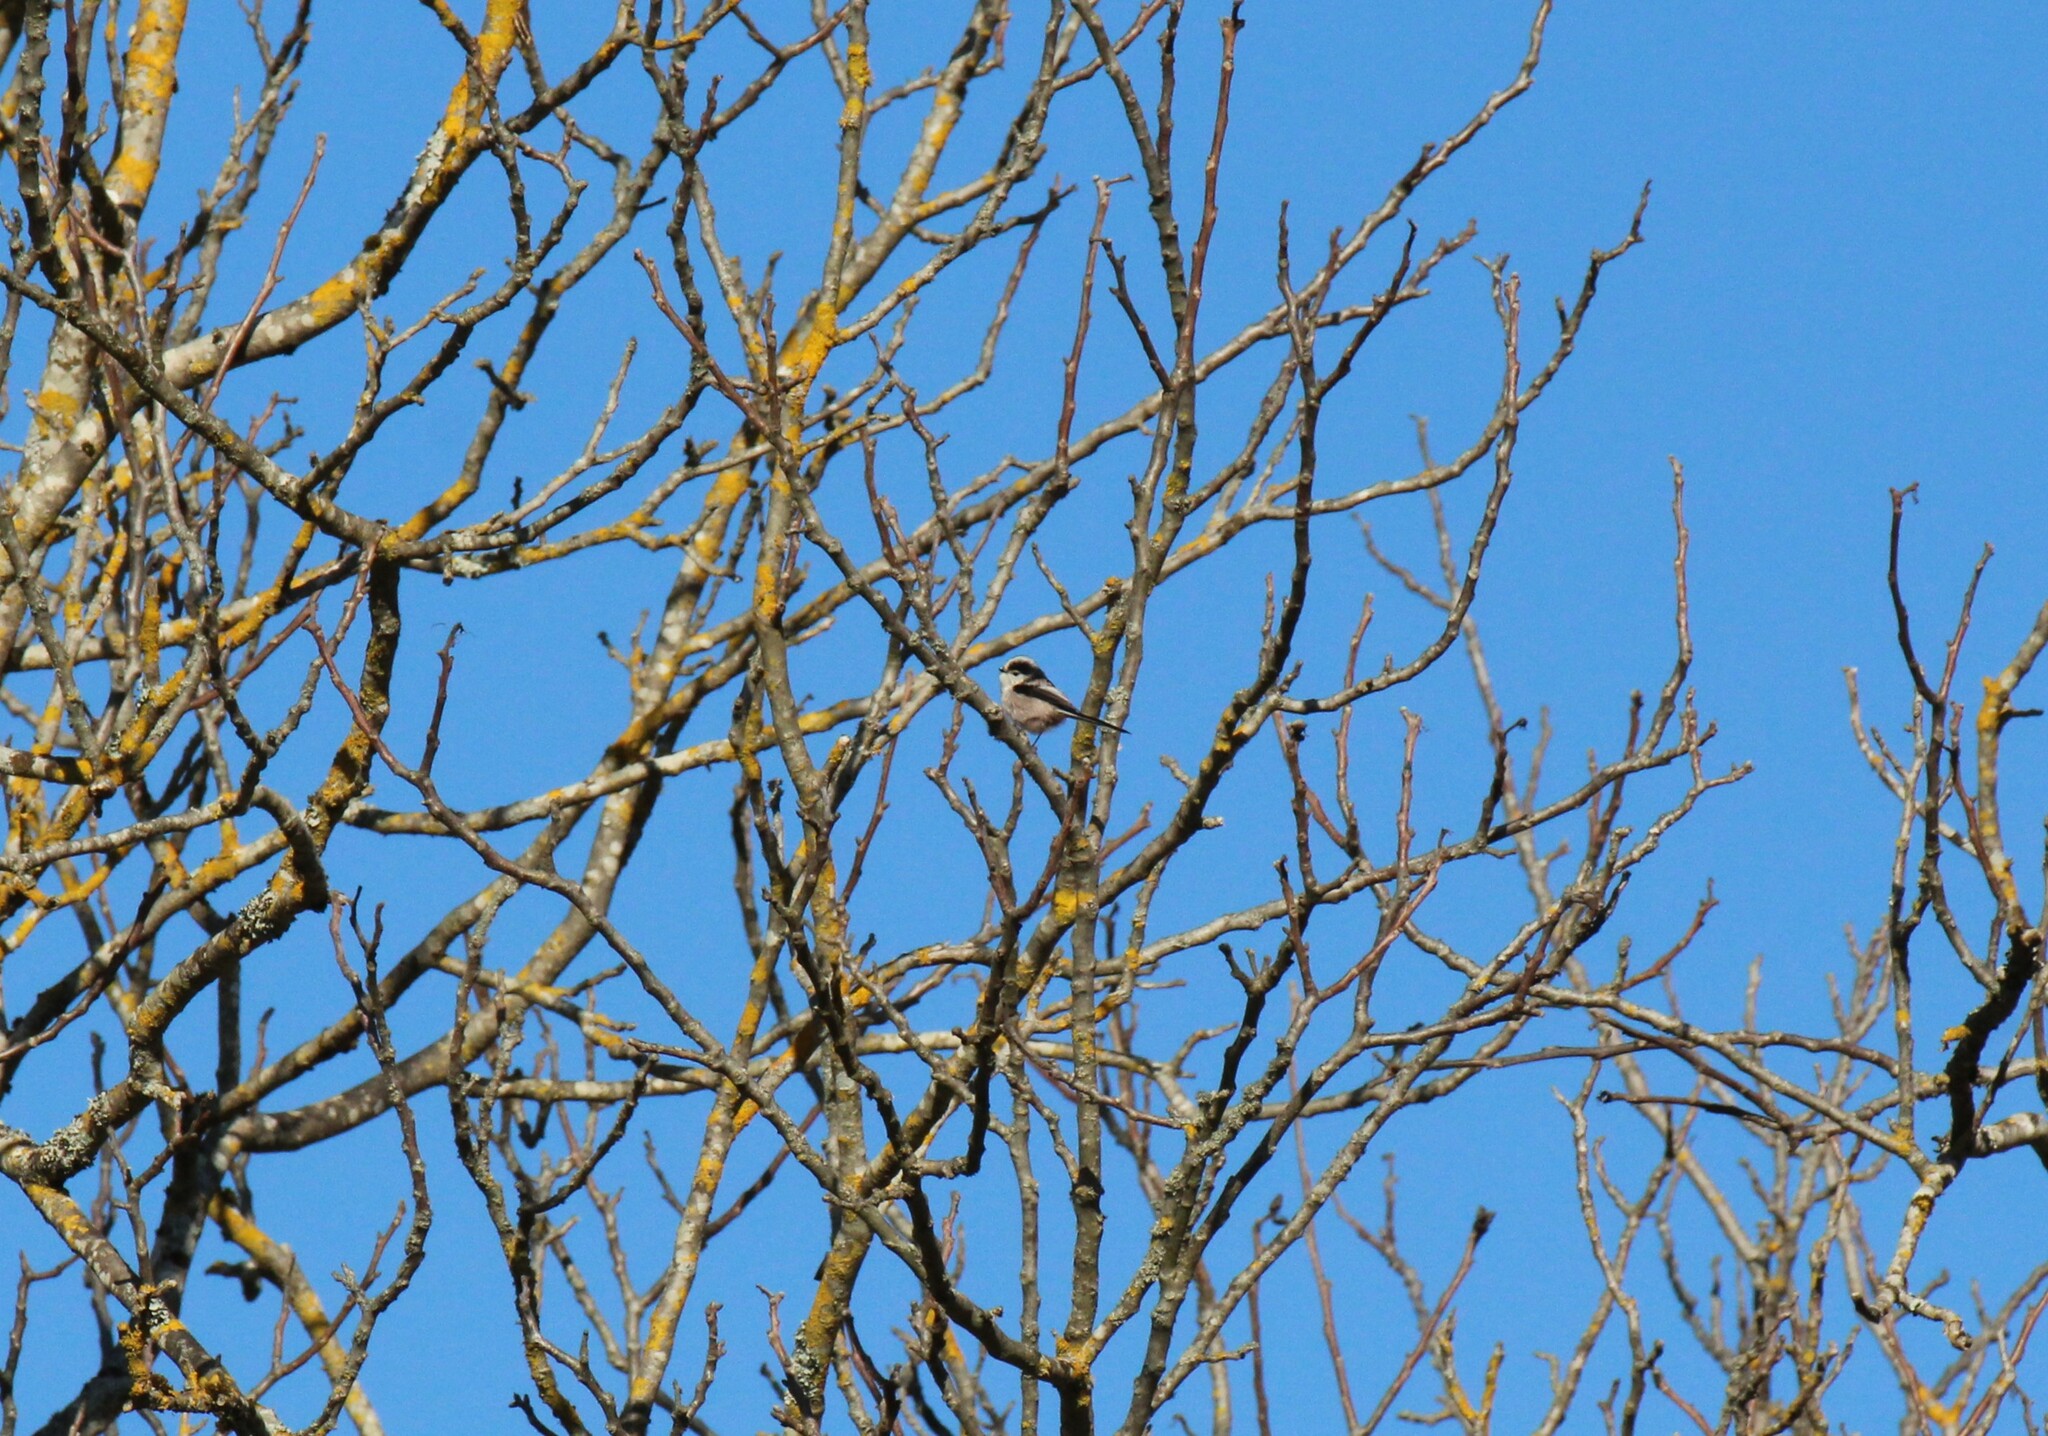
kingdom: Animalia
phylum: Chordata
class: Aves
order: Passeriformes
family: Aegithalidae
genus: Aegithalos
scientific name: Aegithalos caudatus
